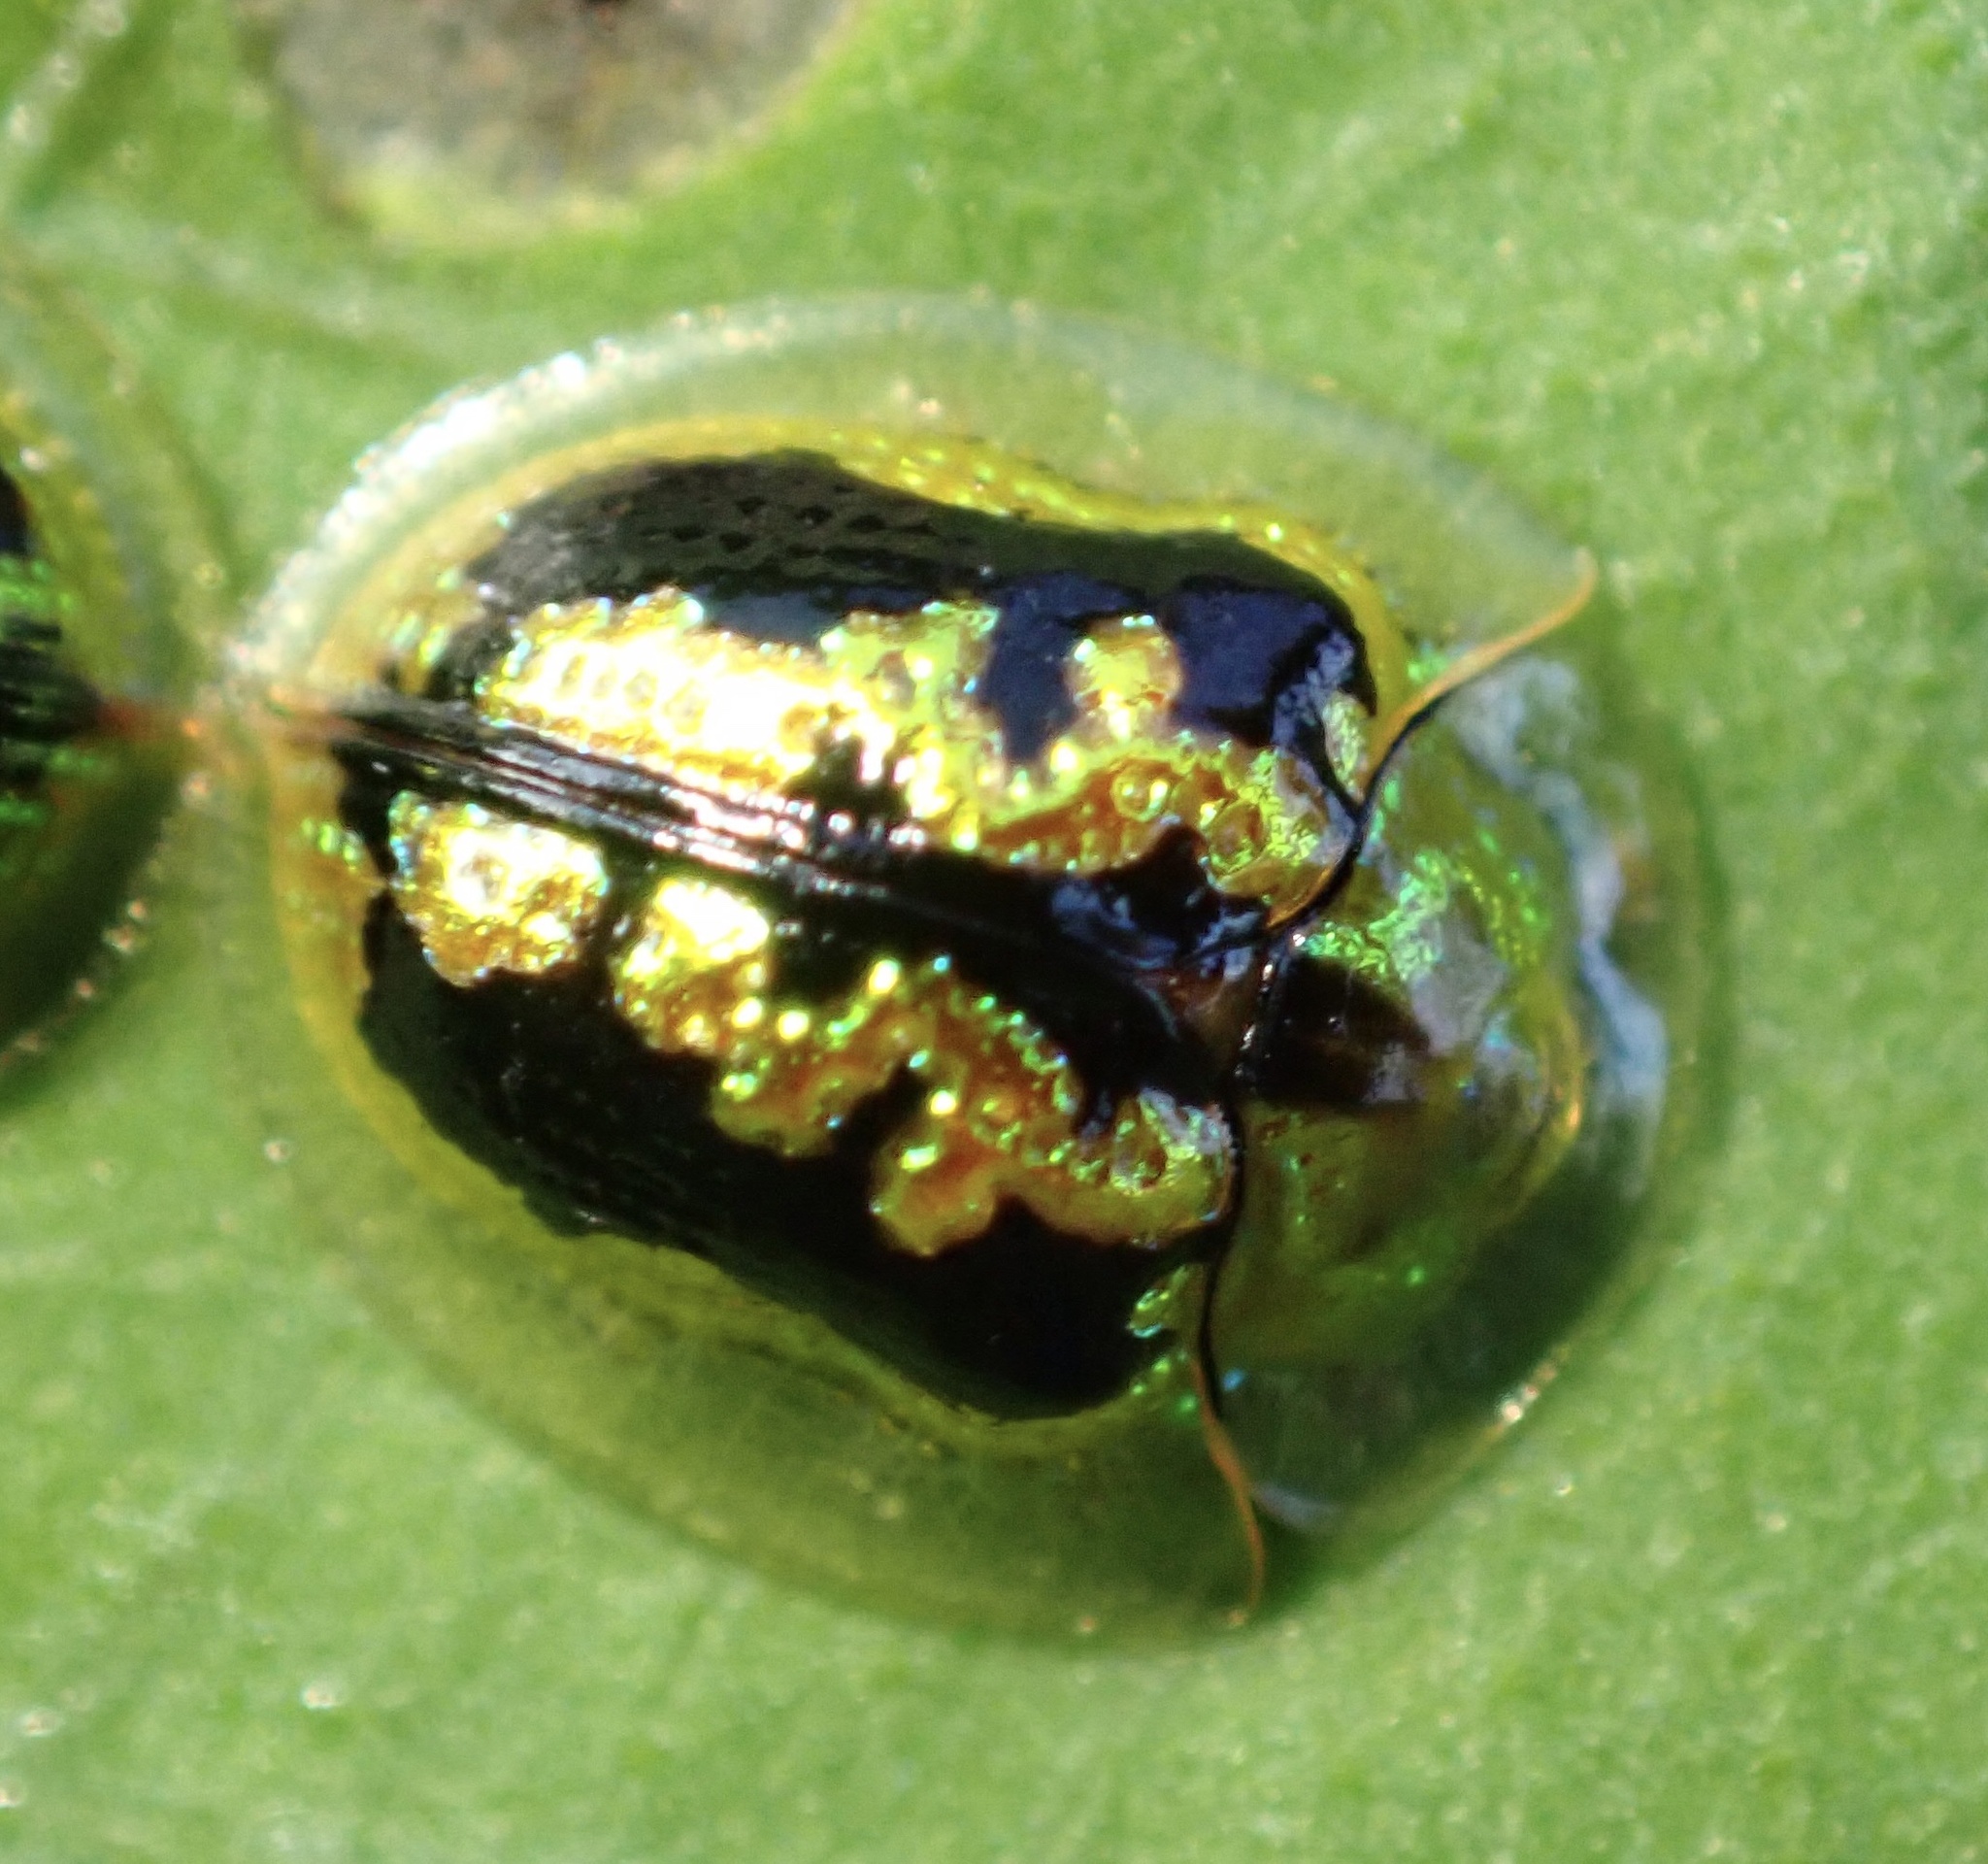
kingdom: Animalia
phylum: Arthropoda
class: Insecta
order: Coleoptera
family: Chrysomelidae
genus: Cassida
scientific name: Cassida circumdata
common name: Tortoise beetle
